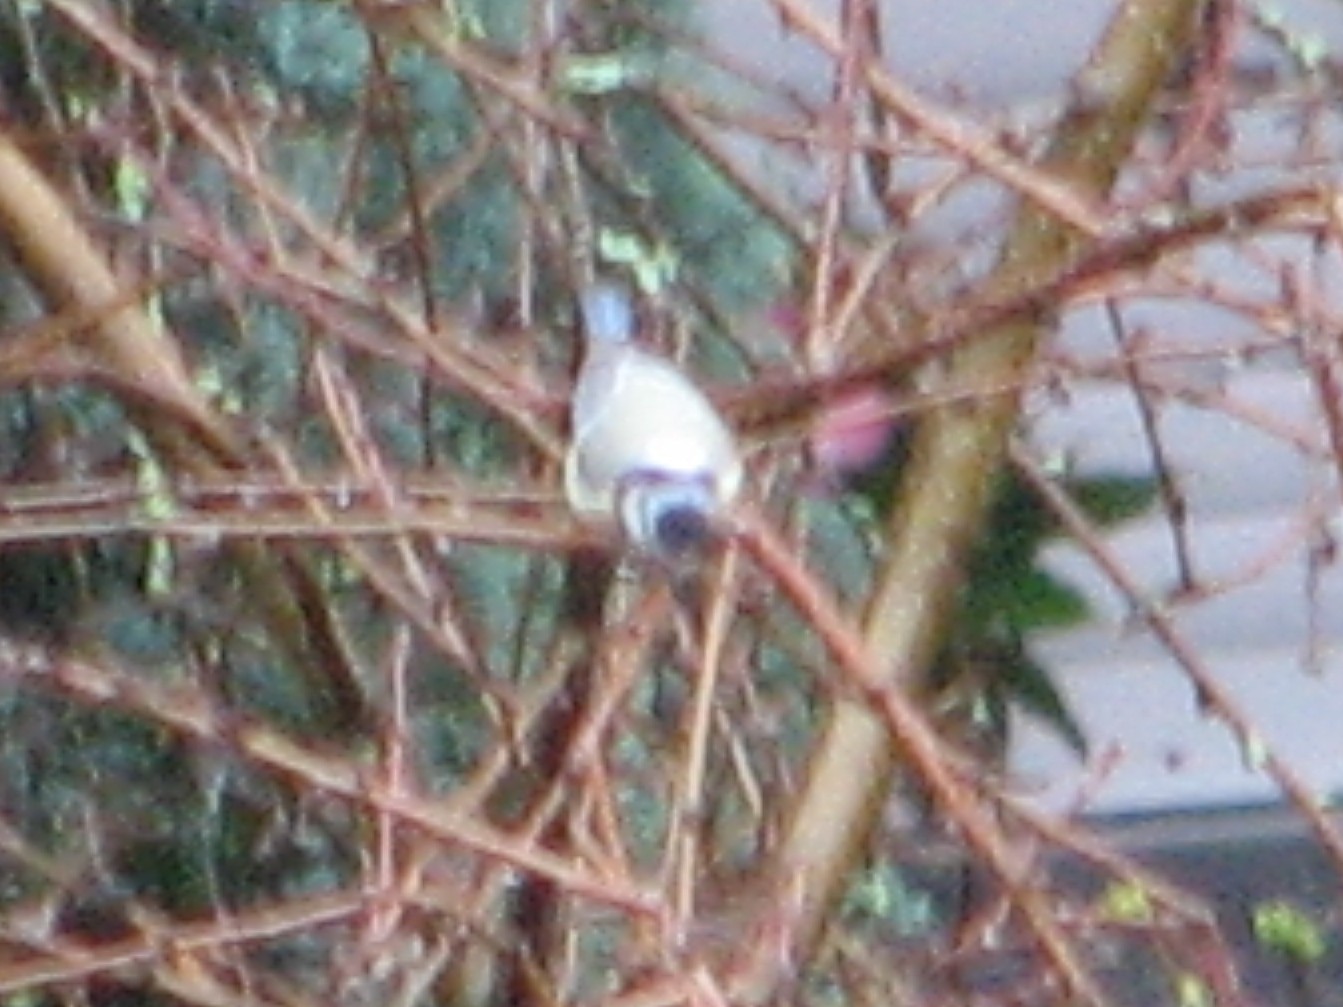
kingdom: Animalia
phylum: Chordata
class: Aves
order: Passeriformes
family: Paridae
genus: Cyanistes
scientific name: Cyanistes caeruleus
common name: Eurasian blue tit
